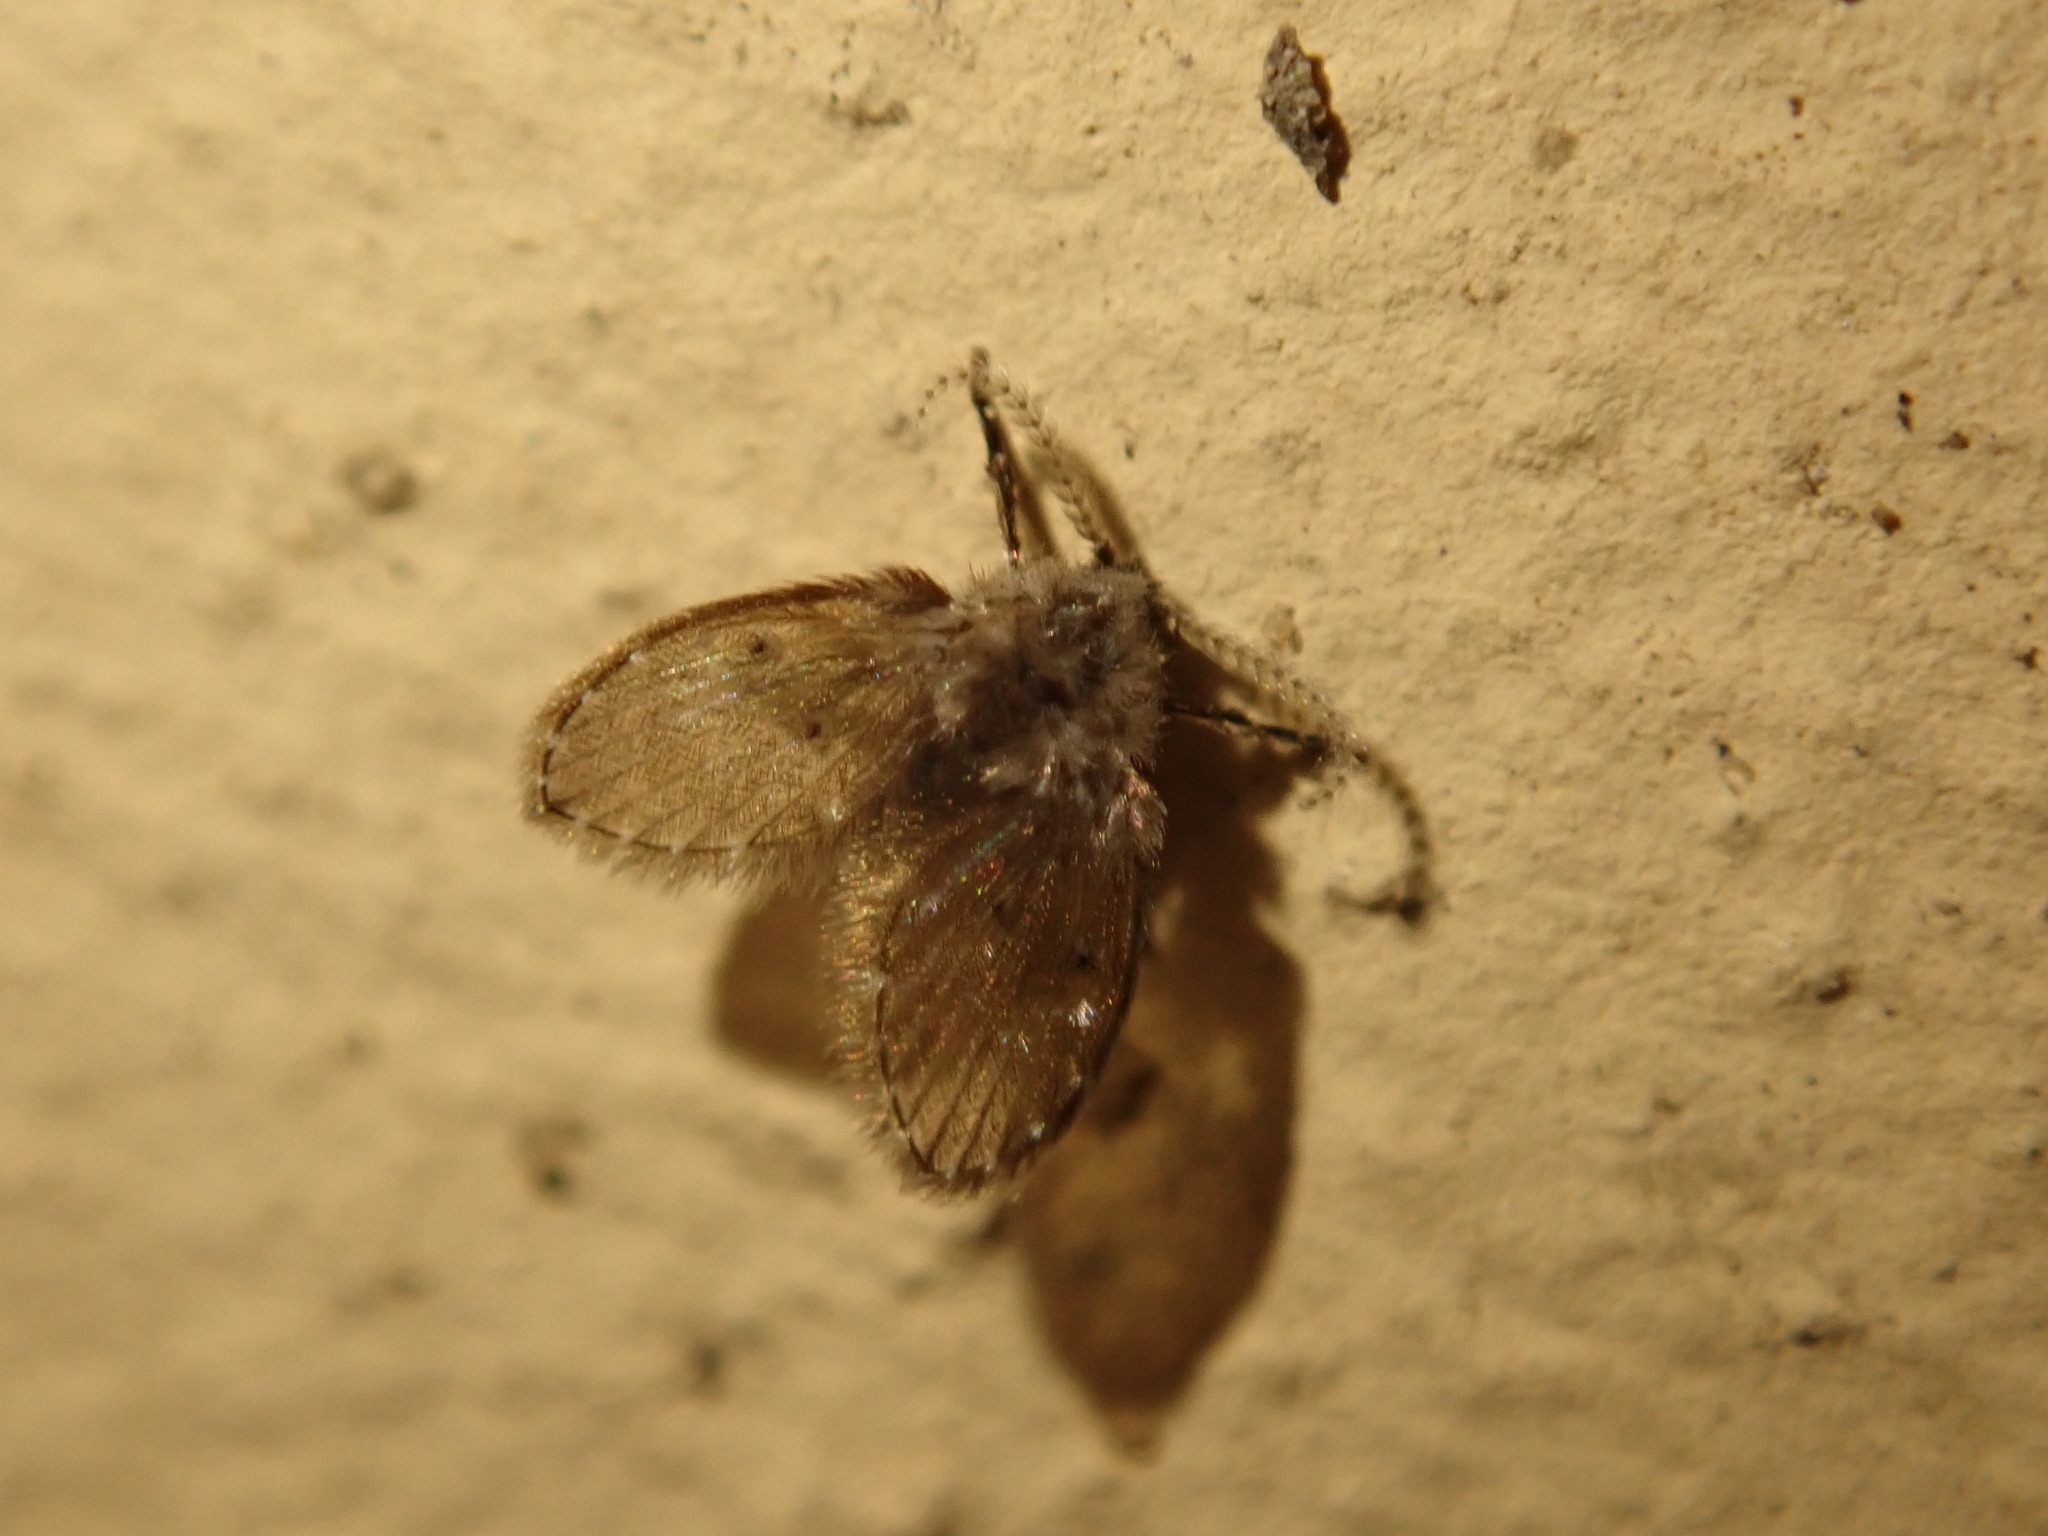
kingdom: Animalia
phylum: Arthropoda
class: Insecta
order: Diptera
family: Psychodidae
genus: Clogmia
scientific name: Clogmia albipunctatus
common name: White-spotted moth fly
